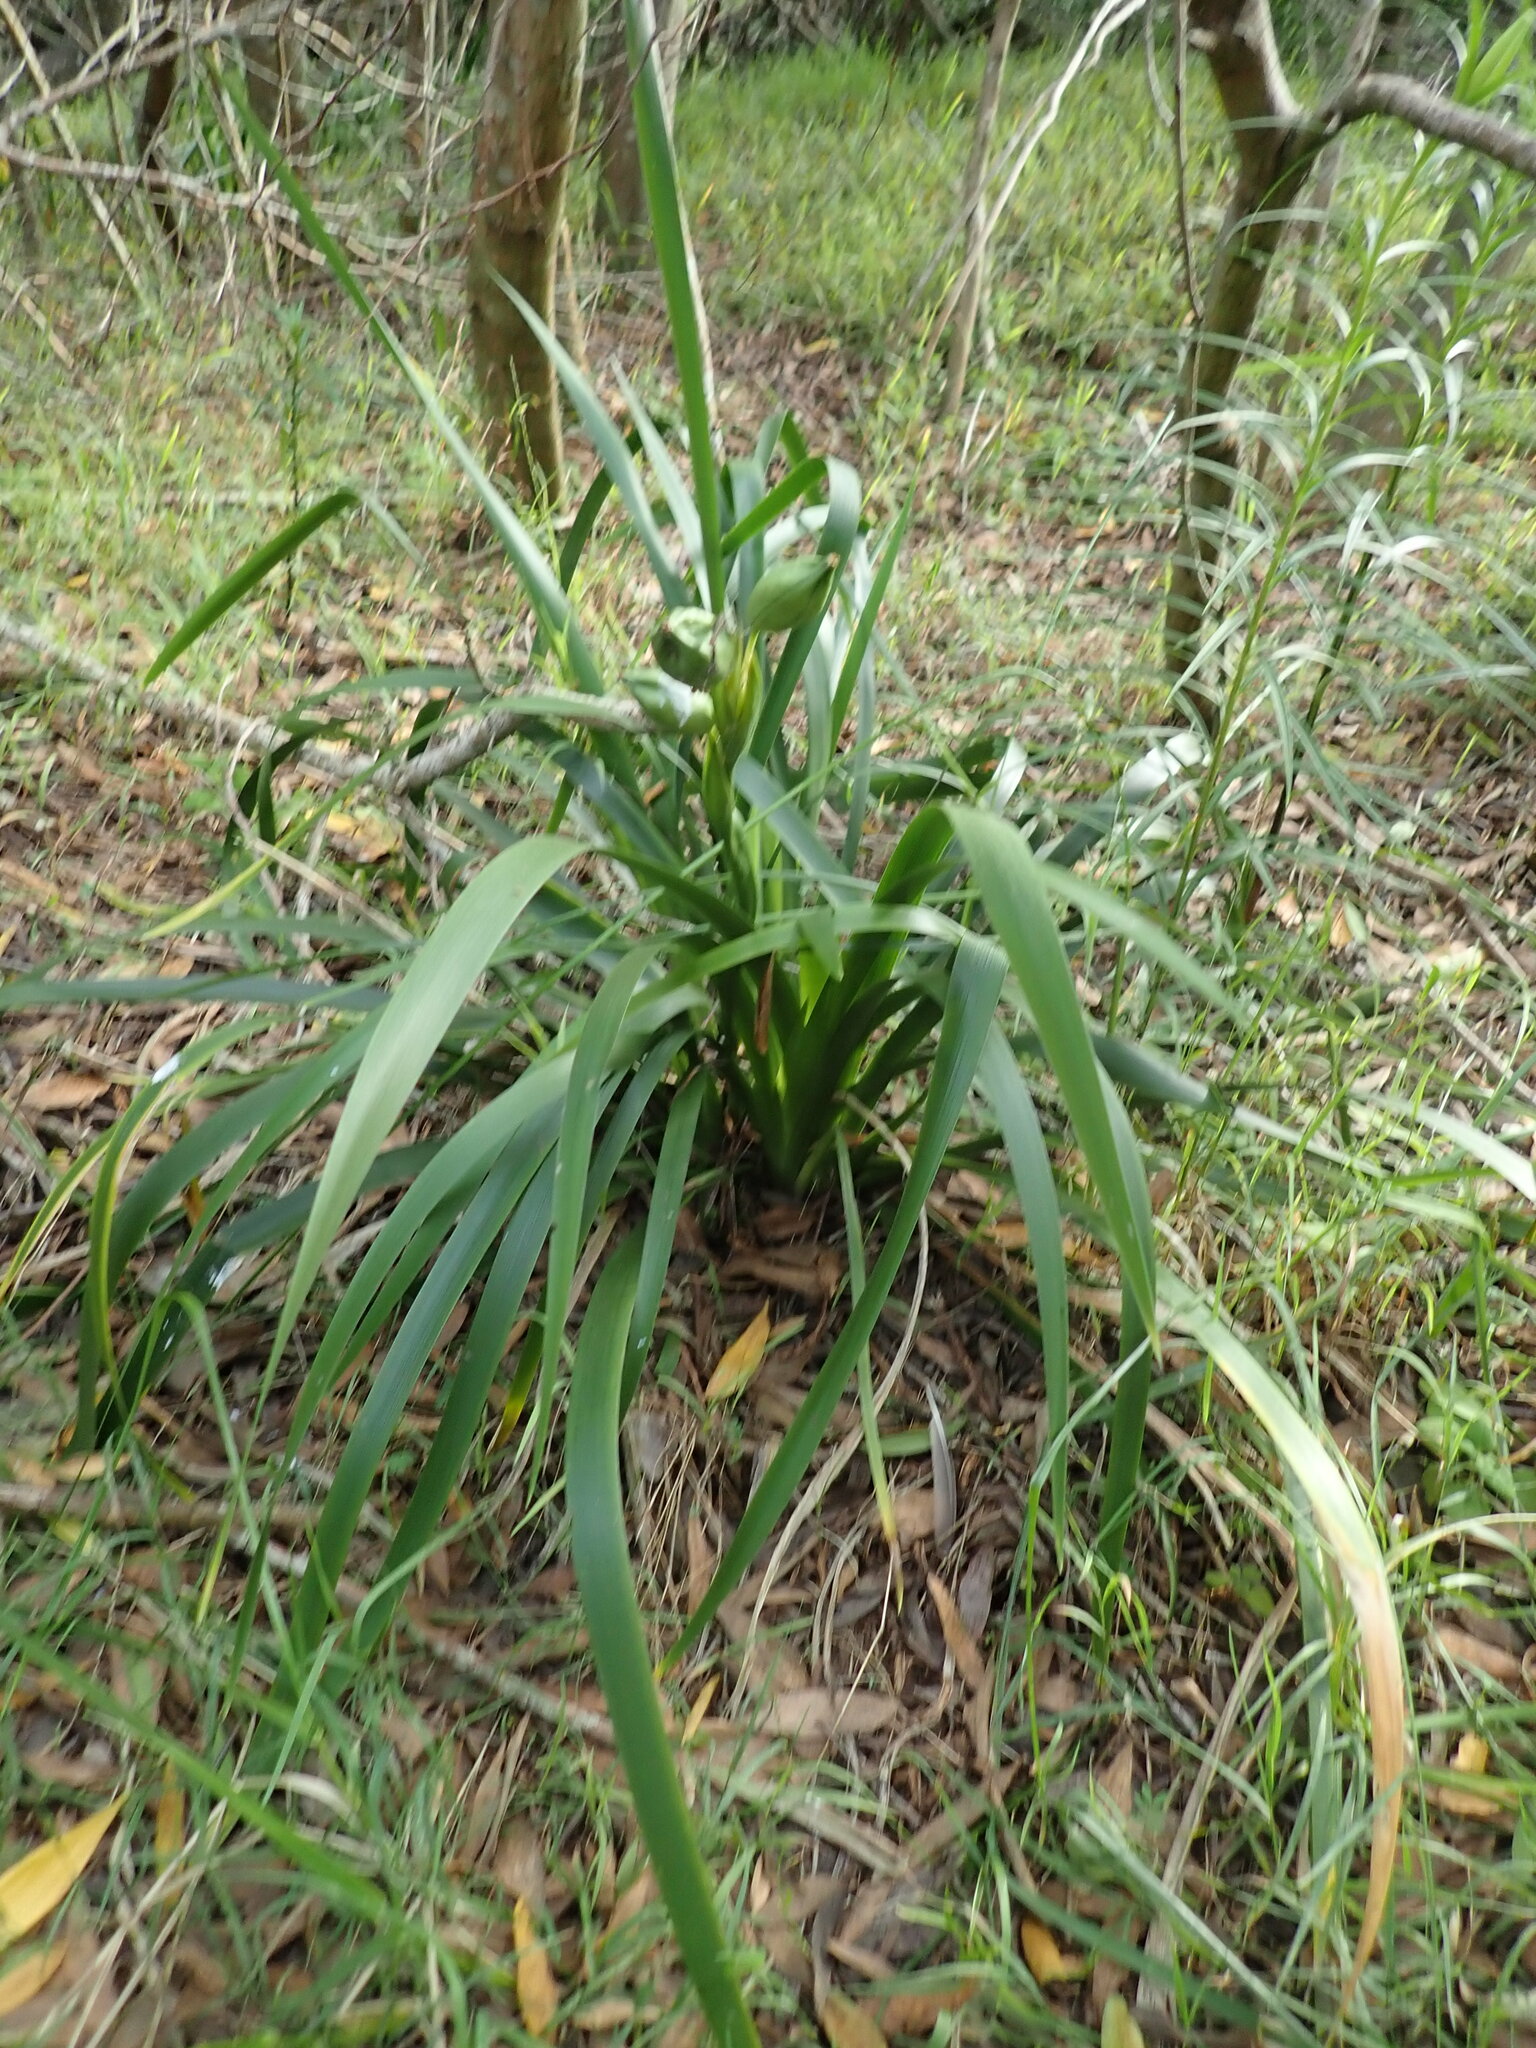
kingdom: Plantae
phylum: Tracheophyta
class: Liliopsida
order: Asparagales
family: Iridaceae
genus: Iris
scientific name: Iris foetidissima
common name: Stinking iris
